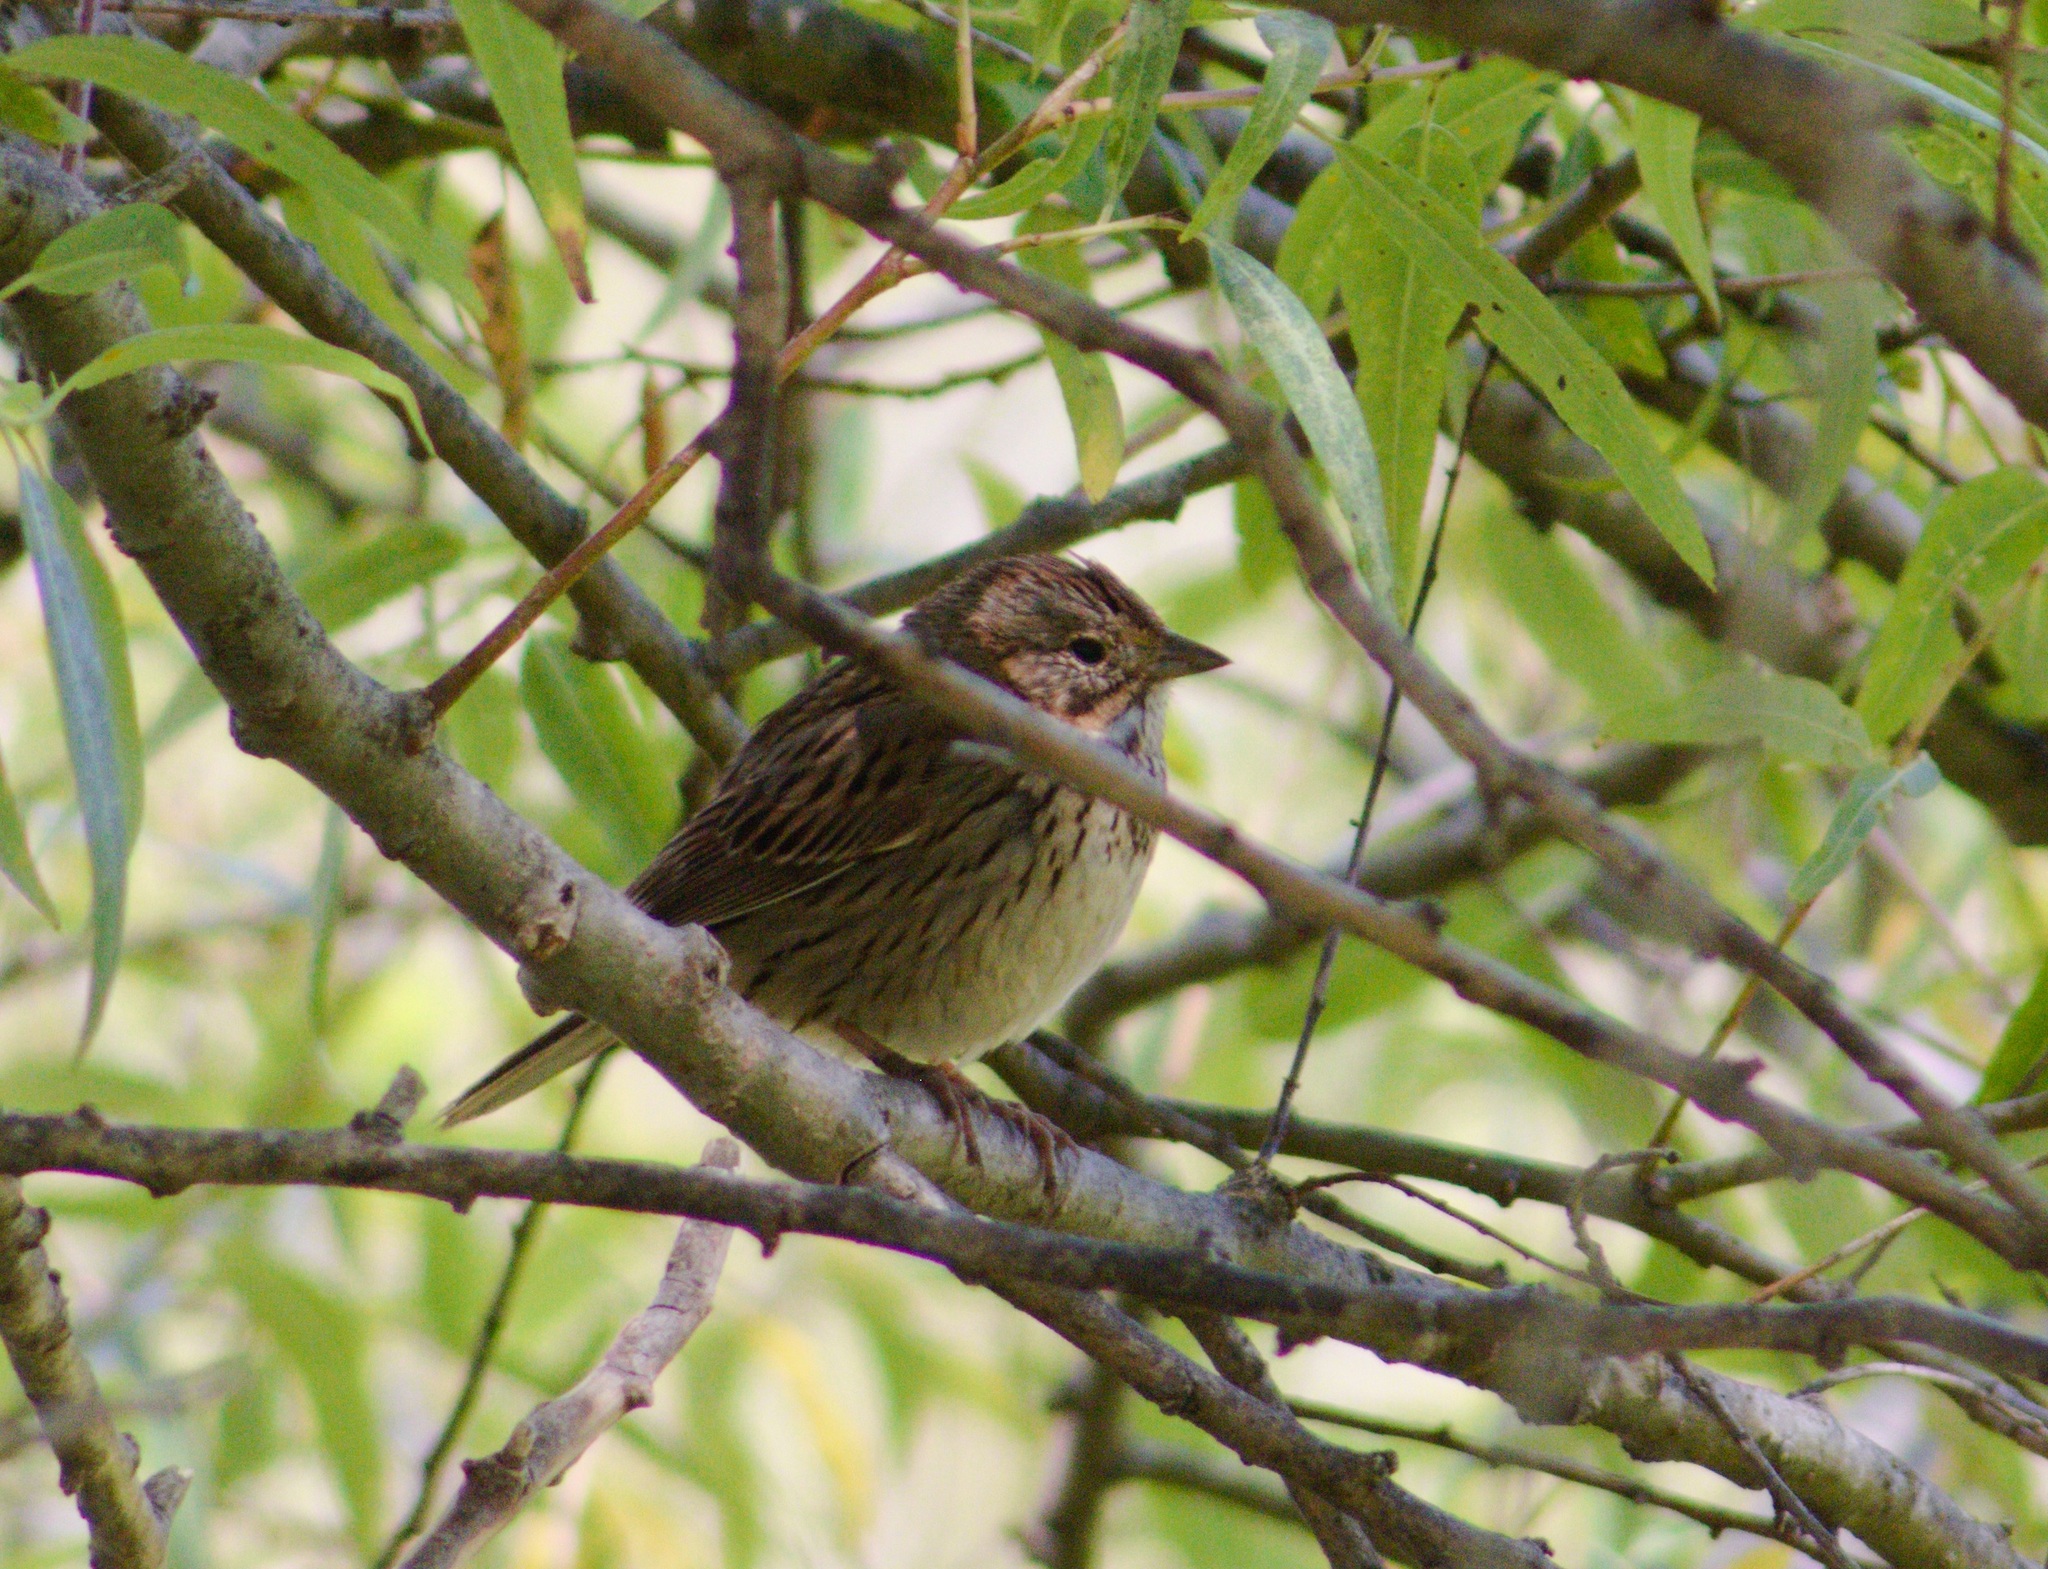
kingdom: Animalia
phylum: Chordata
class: Aves
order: Passeriformes
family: Passerellidae
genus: Melospiza
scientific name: Melospiza lincolnii
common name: Lincoln's sparrow
